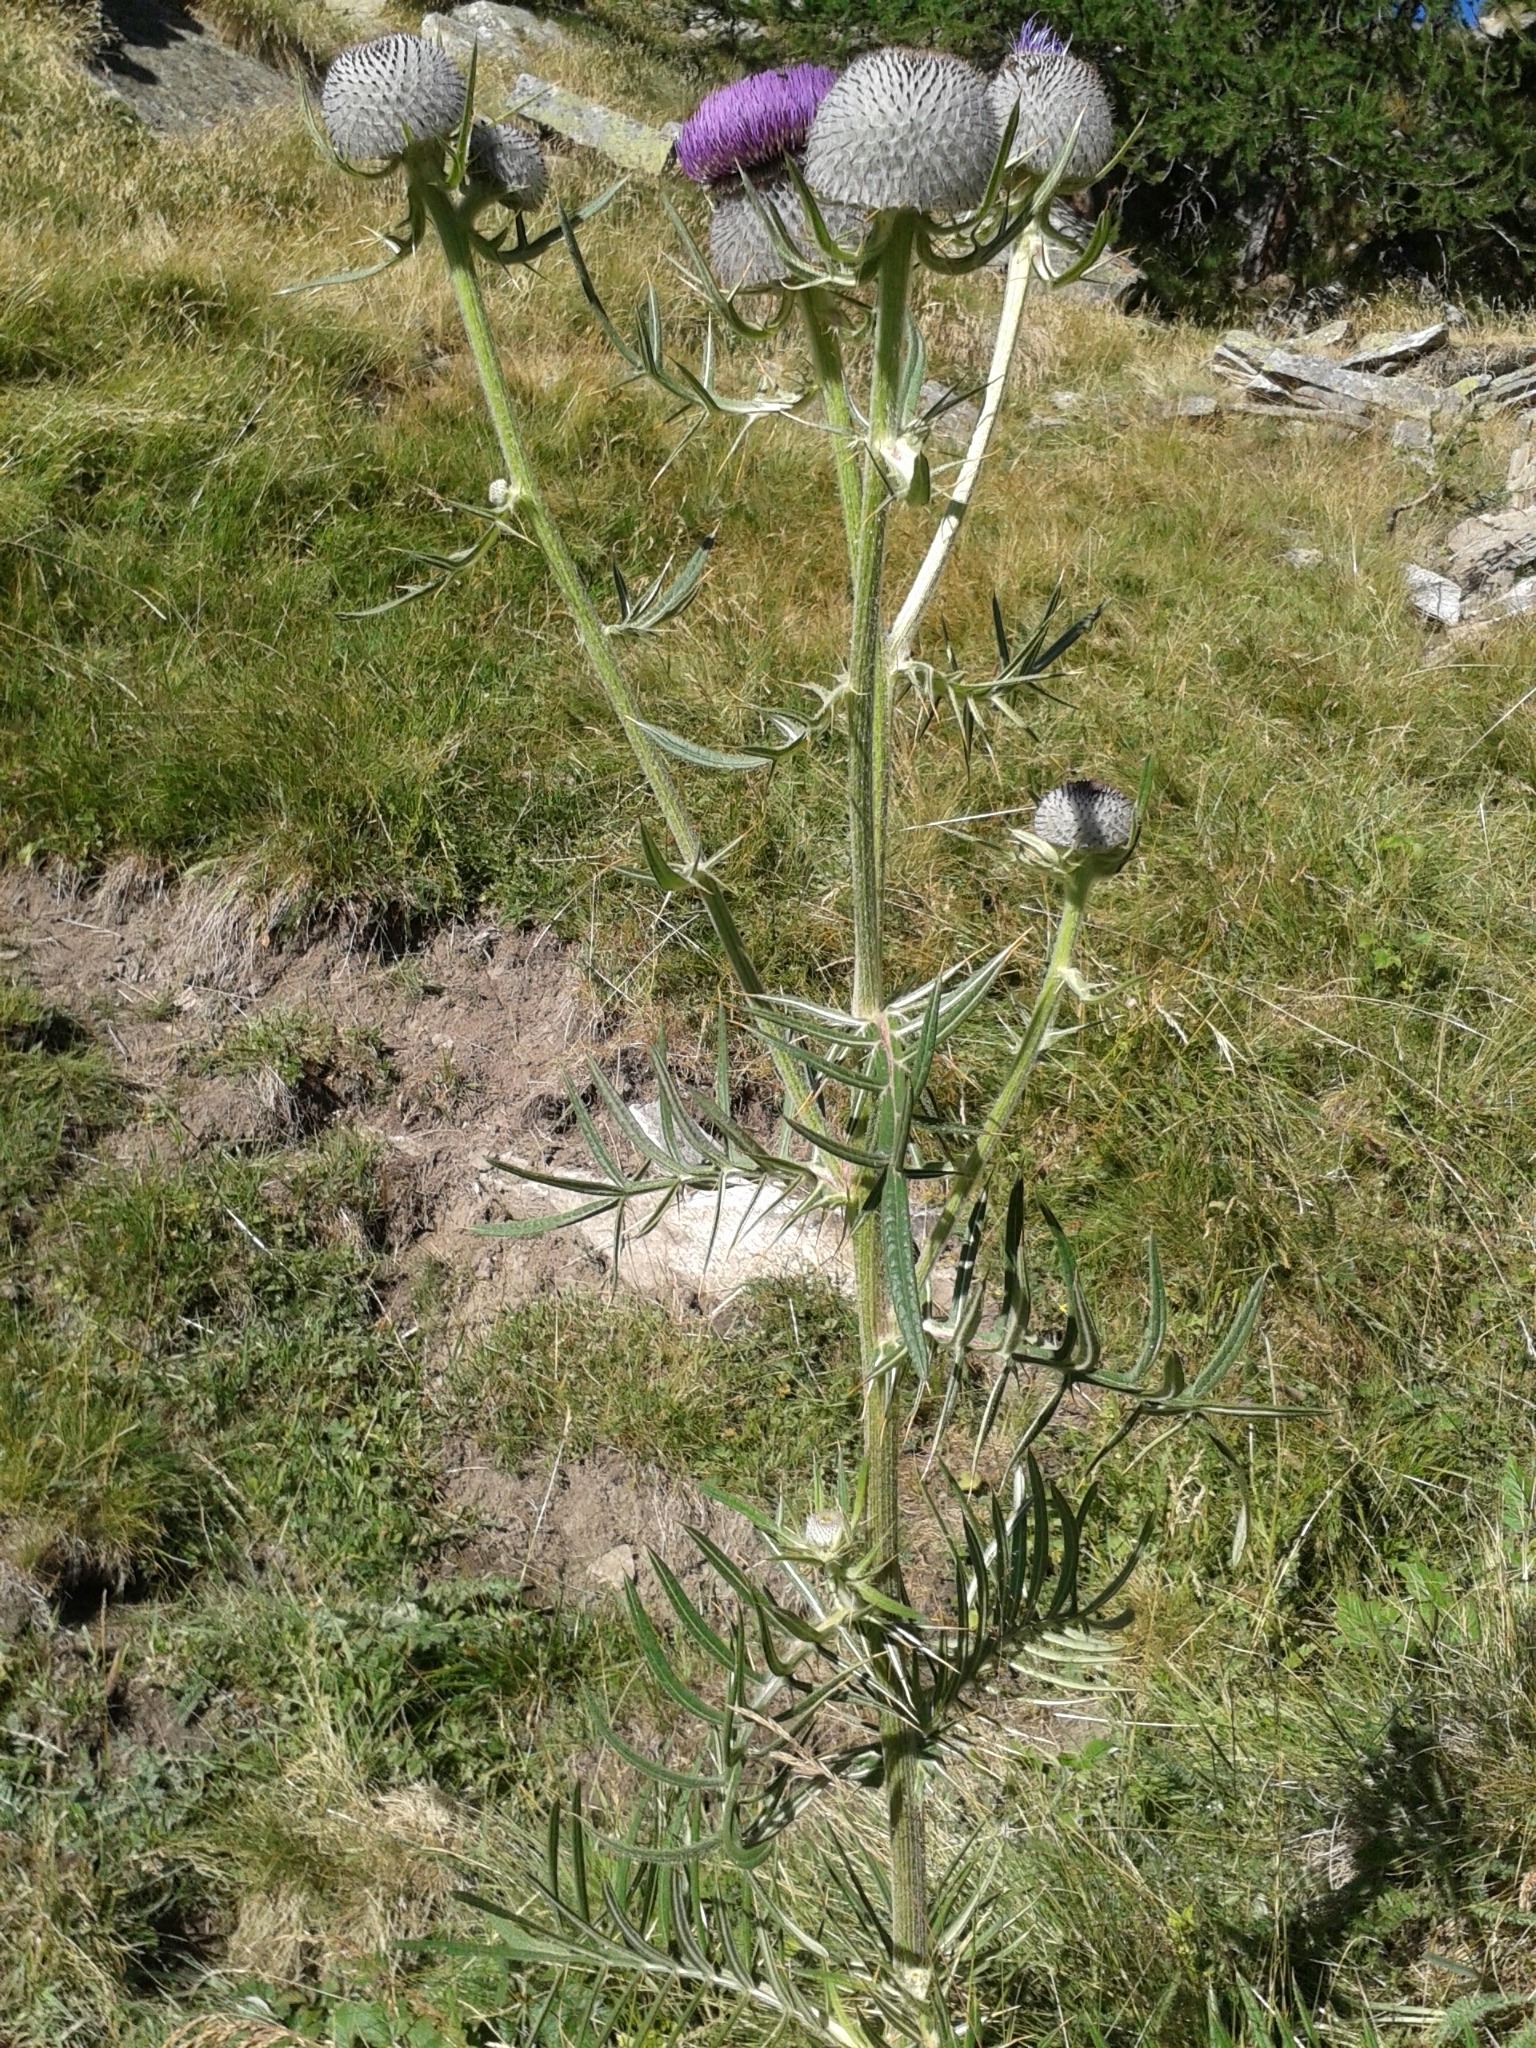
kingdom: Plantae
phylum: Tracheophyta
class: Magnoliopsida
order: Asterales
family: Asteraceae
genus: Lophiolepis
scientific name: Lophiolepis eriophora
